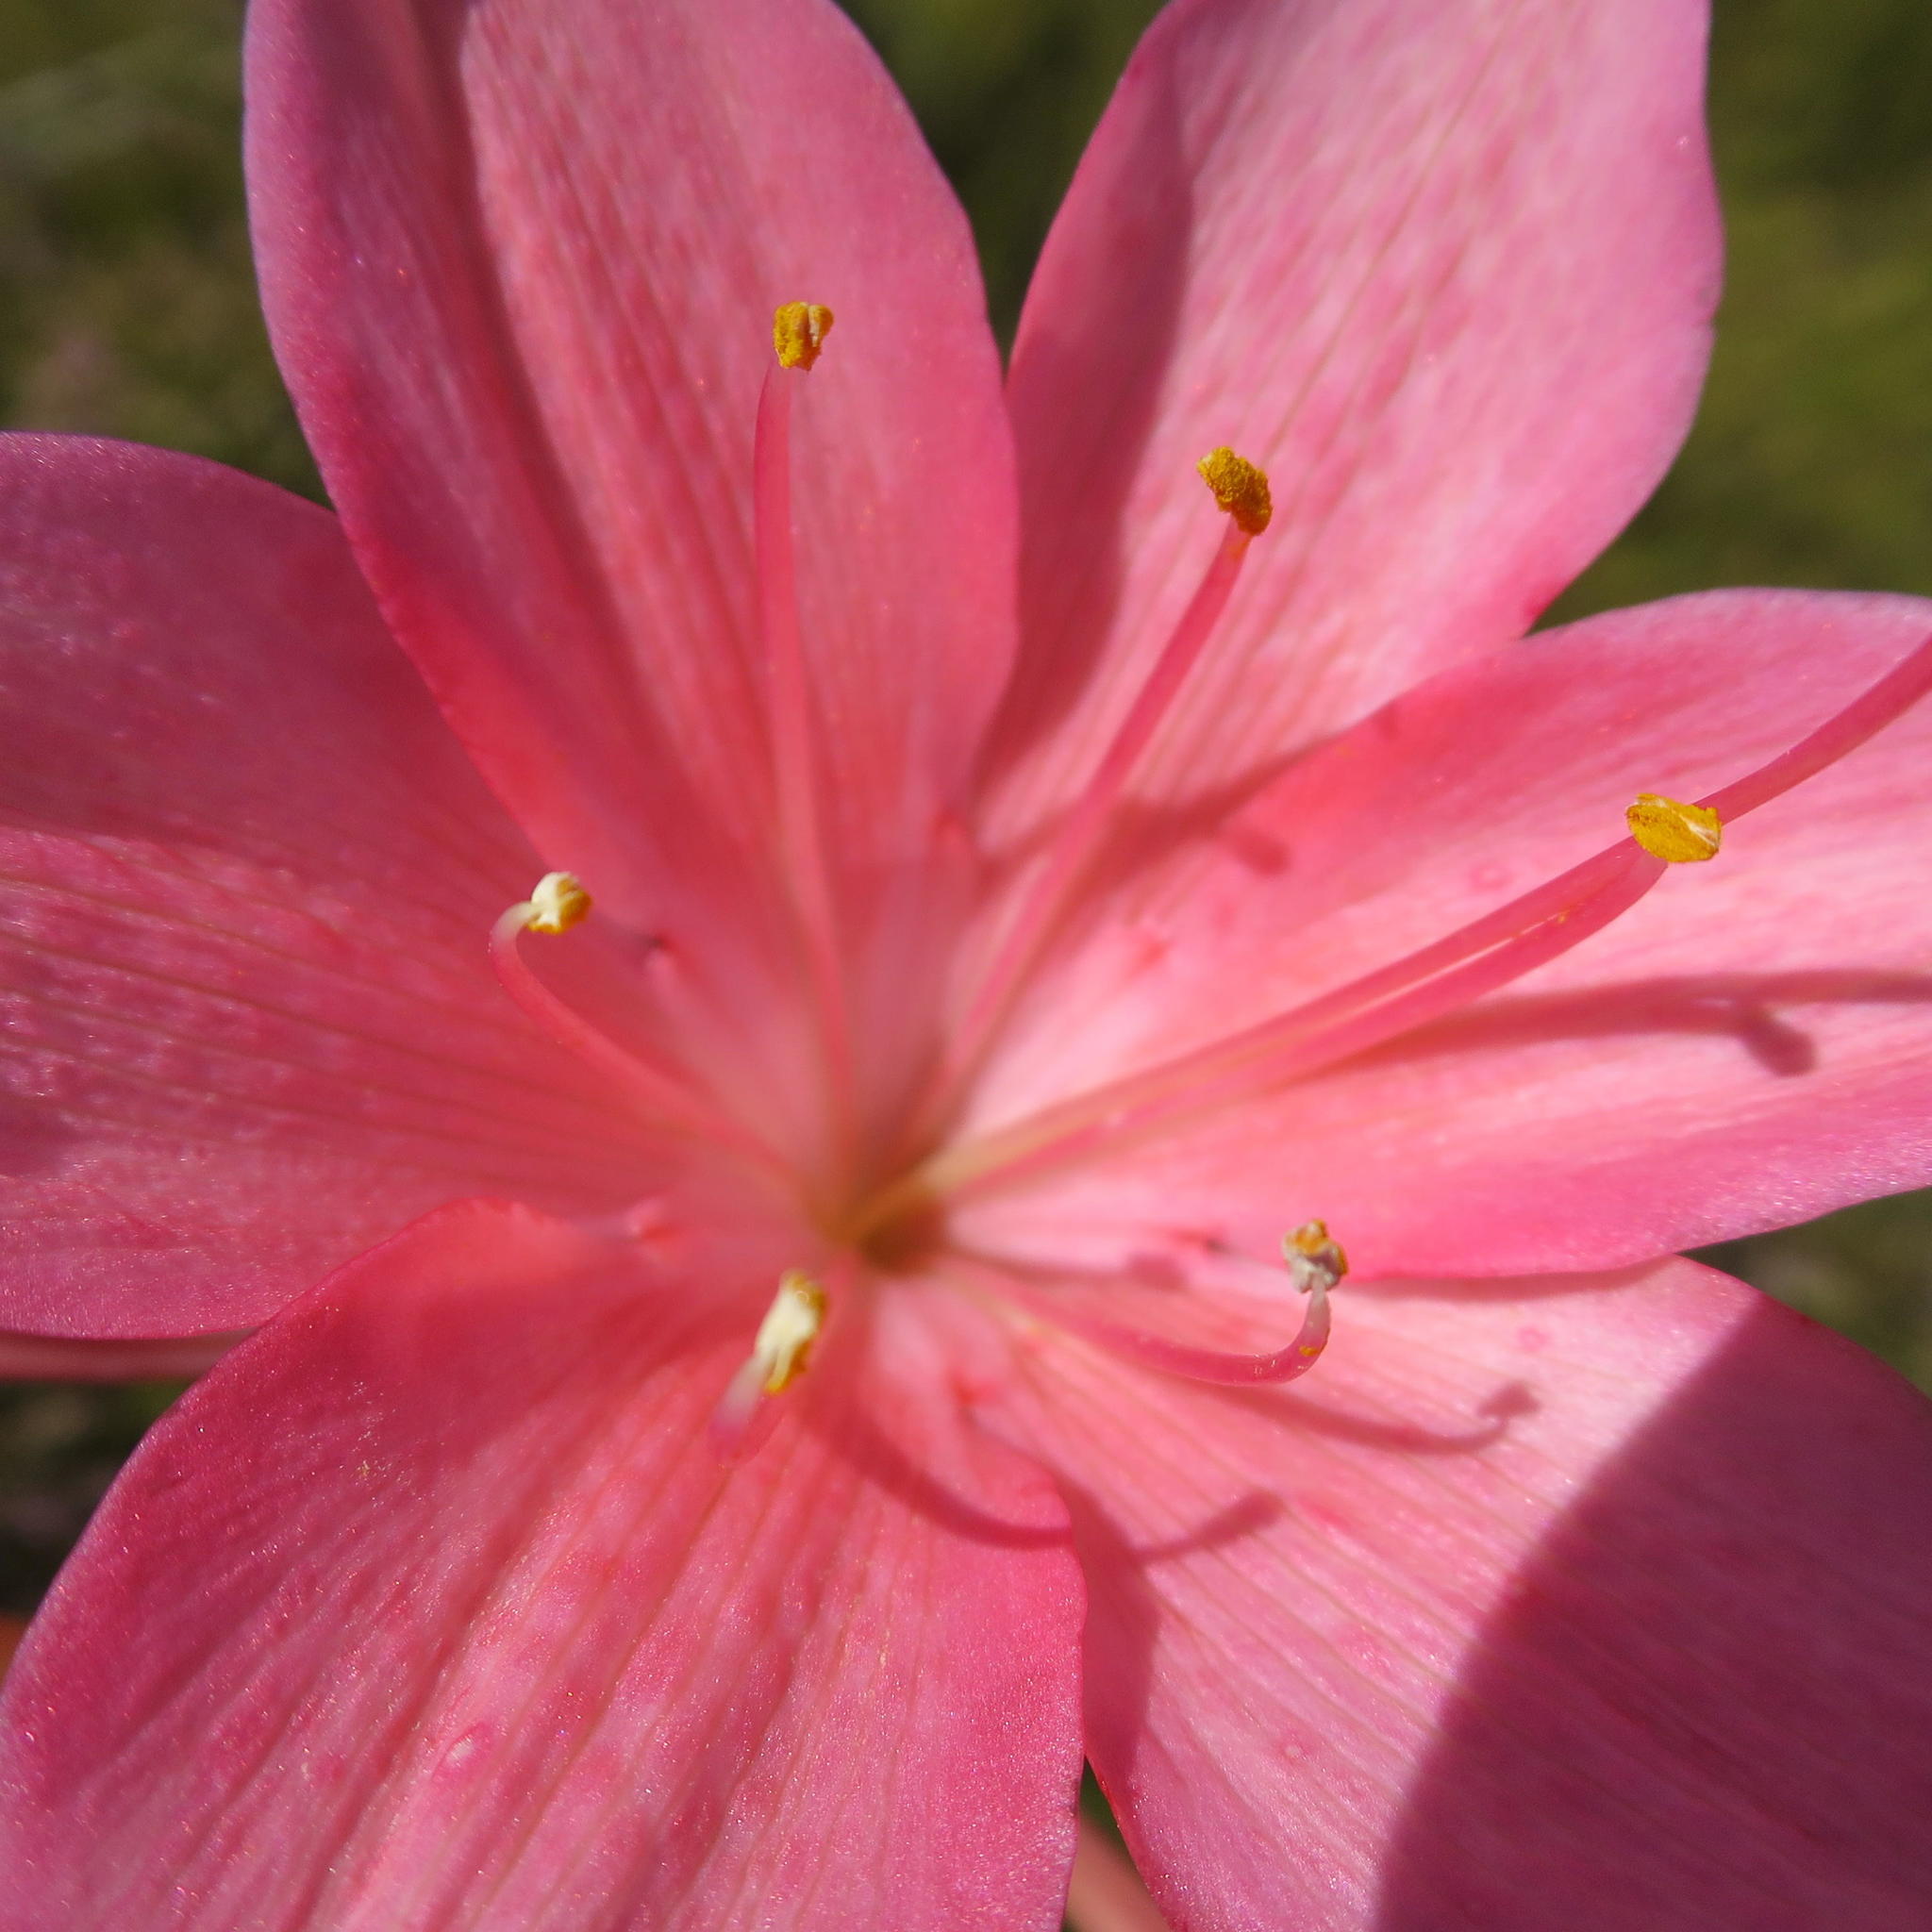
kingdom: Plantae
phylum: Tracheophyta
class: Liliopsida
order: Asparagales
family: Amaryllidaceae
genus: Cyrtanthus
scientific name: Cyrtanthus elatus
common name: Scarborough-lily
